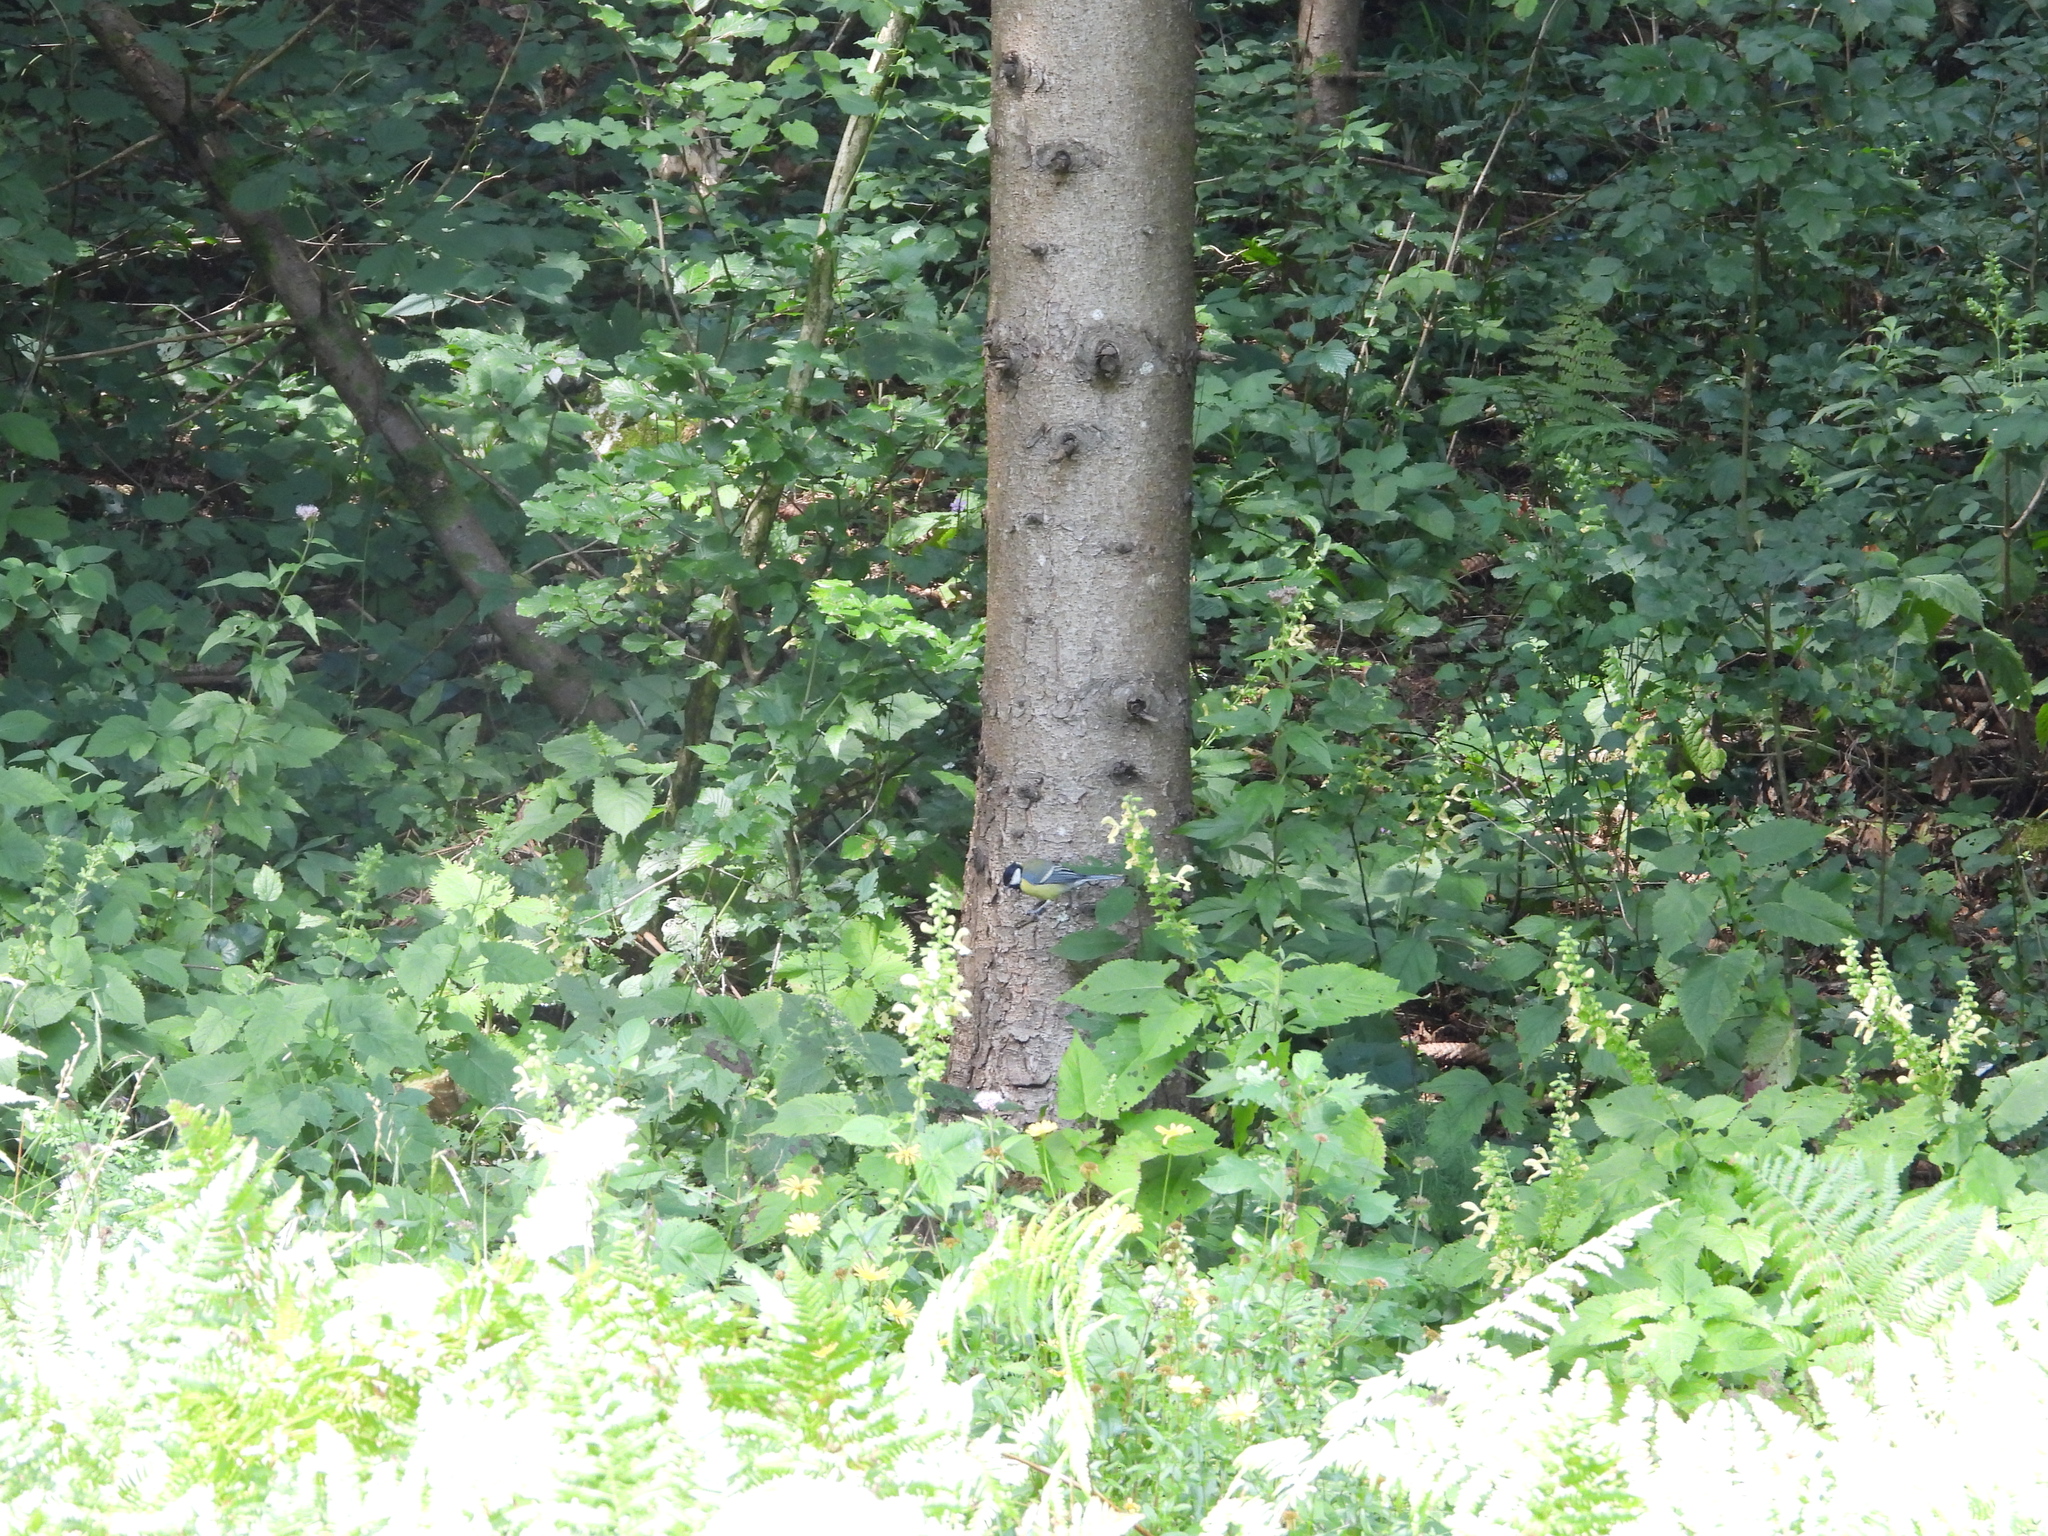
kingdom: Animalia
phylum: Chordata
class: Aves
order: Passeriformes
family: Paridae
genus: Parus
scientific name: Parus major
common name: Great tit
